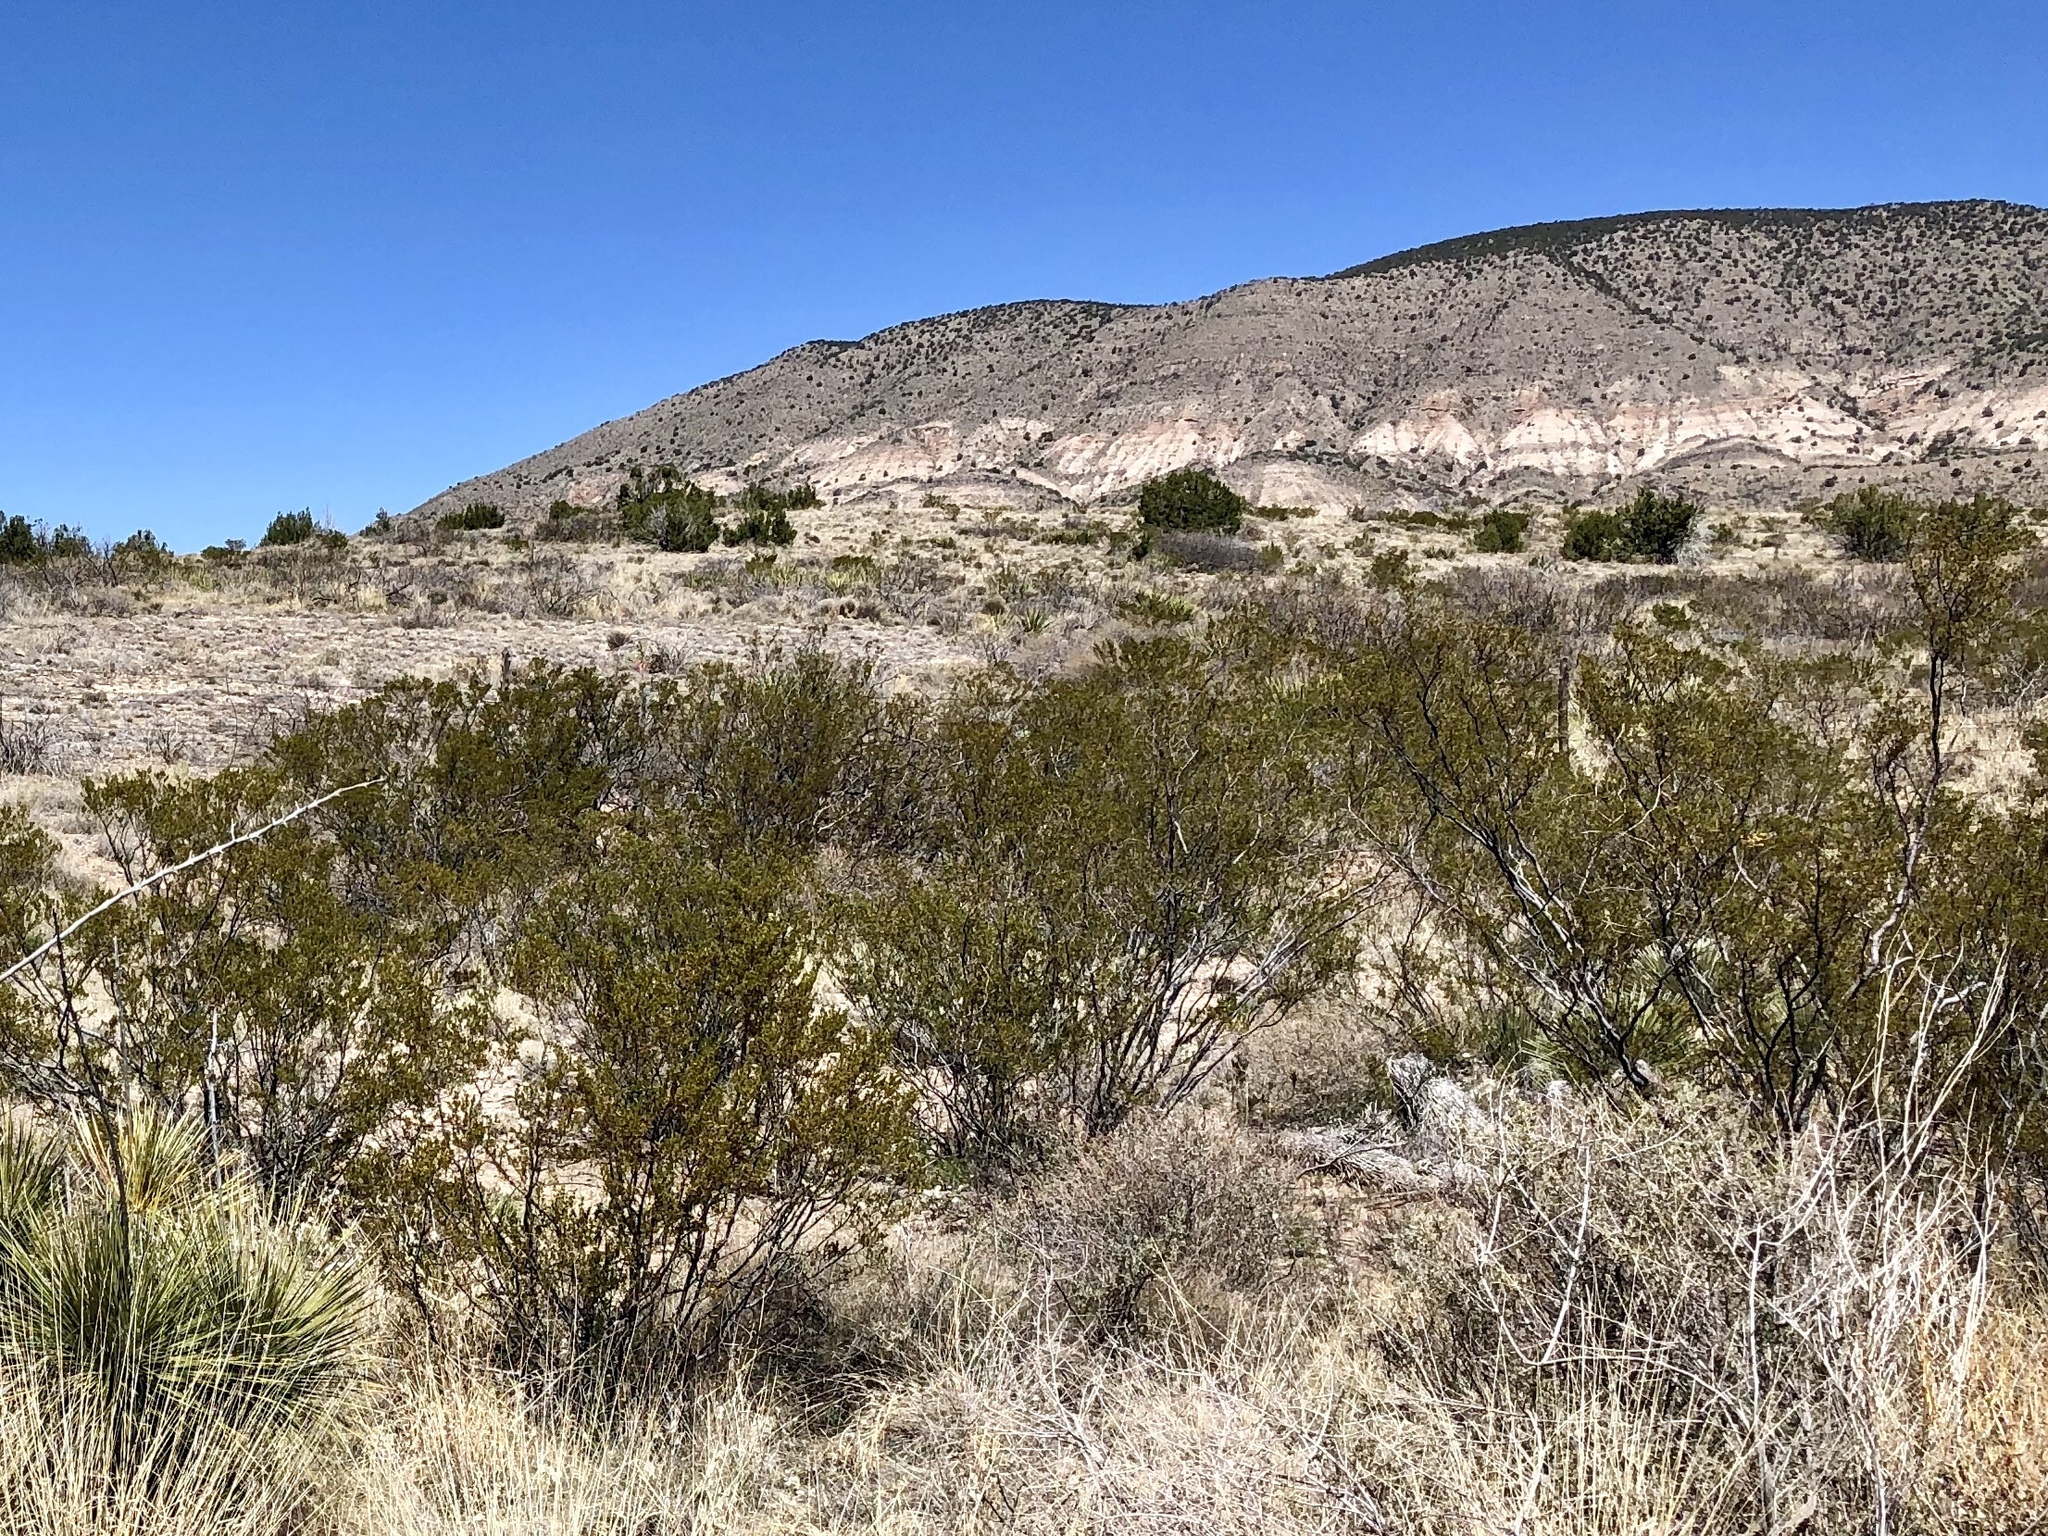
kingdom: Plantae
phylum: Tracheophyta
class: Magnoliopsida
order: Zygophyllales
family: Zygophyllaceae
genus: Larrea
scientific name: Larrea tridentata
